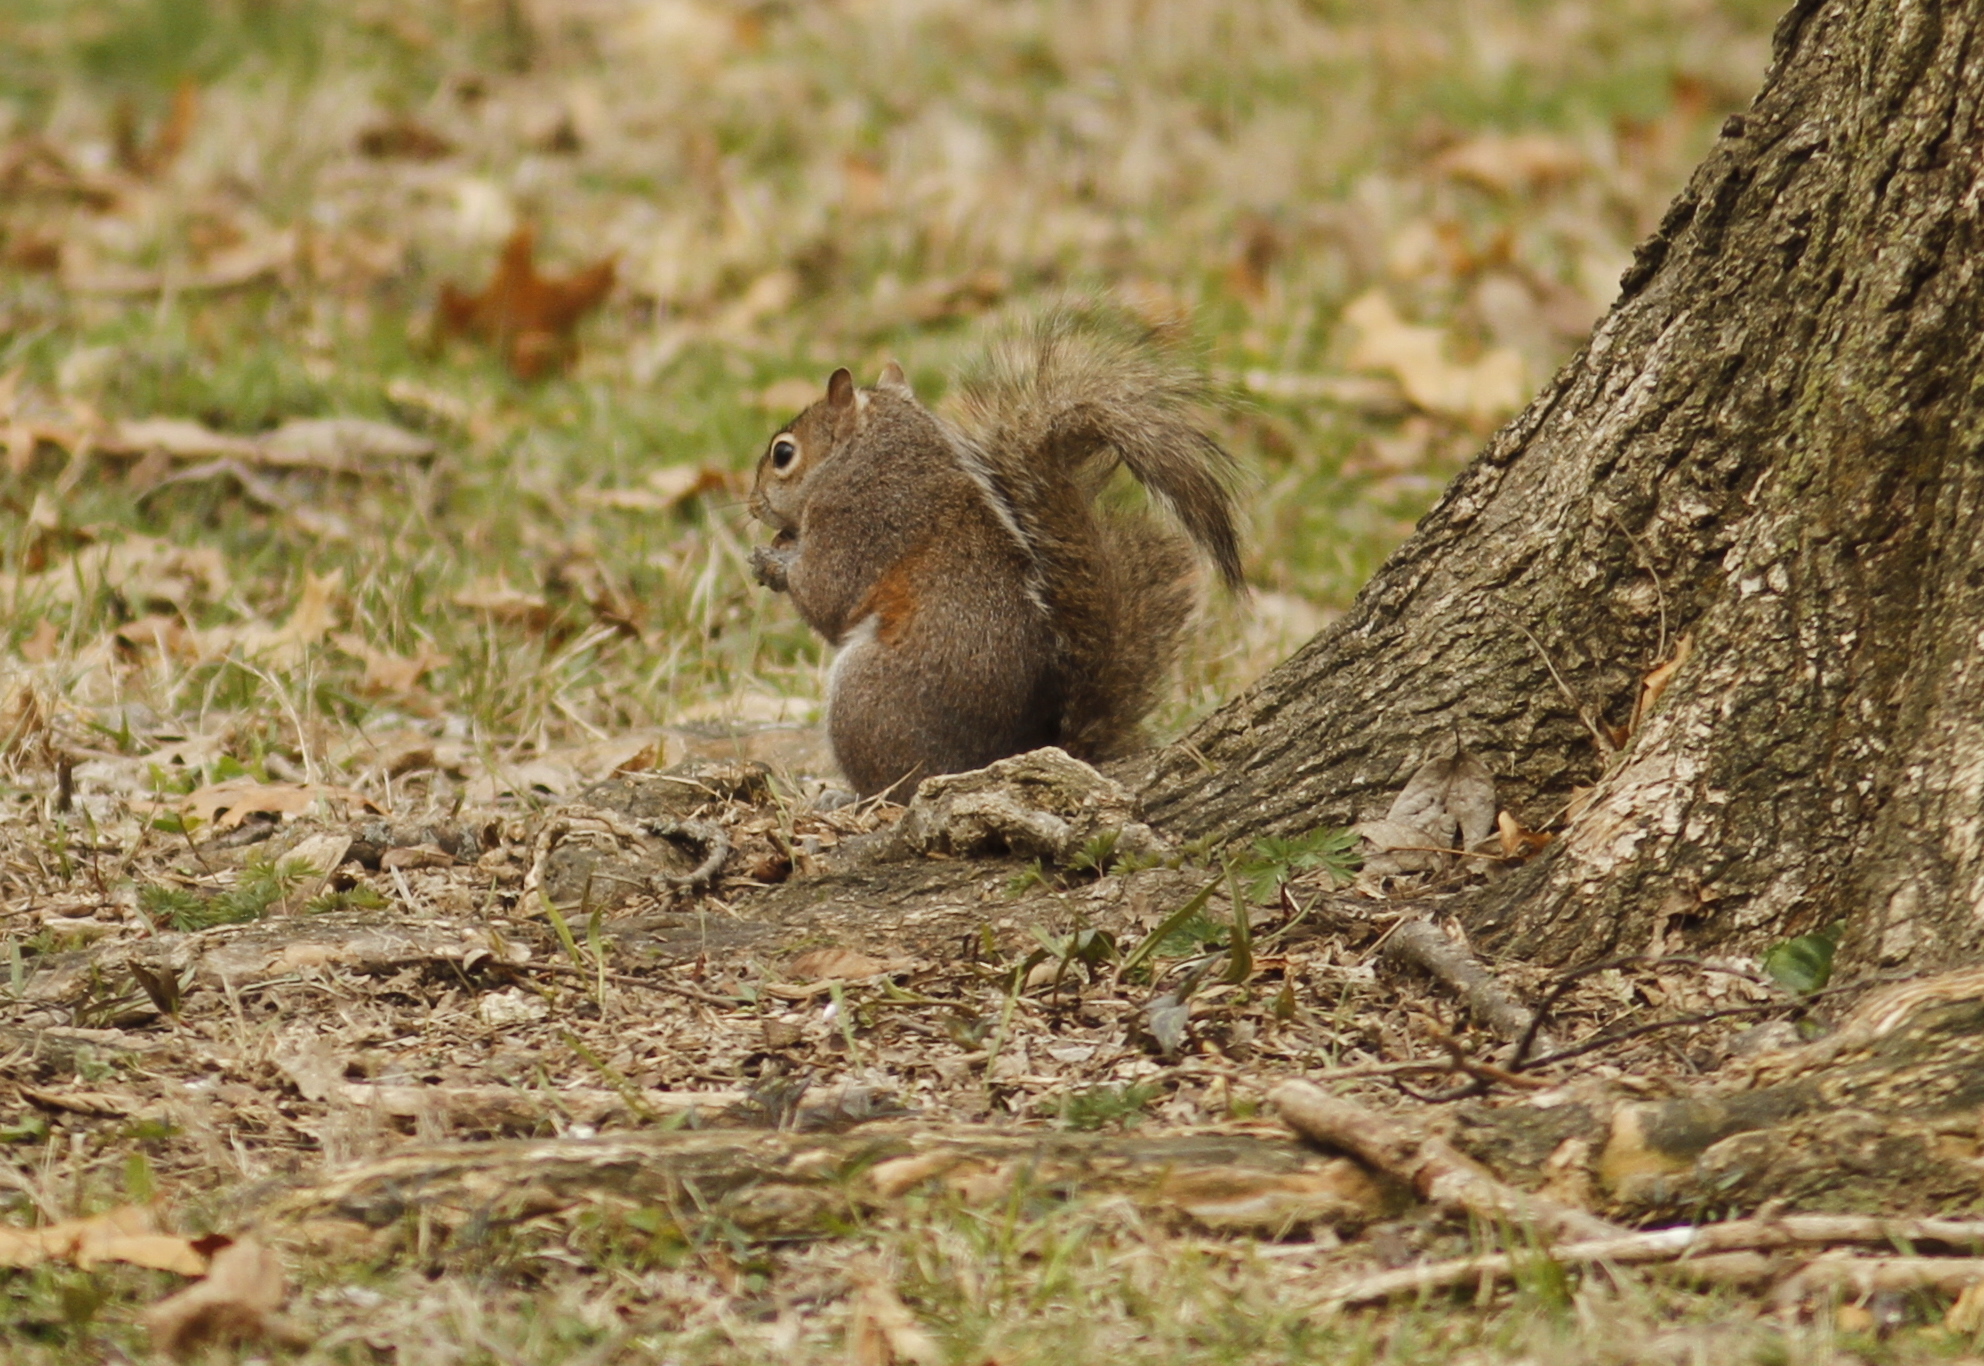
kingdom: Animalia
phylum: Chordata
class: Mammalia
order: Rodentia
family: Sciuridae
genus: Sciurus
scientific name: Sciurus carolinensis
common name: Eastern gray squirrel
